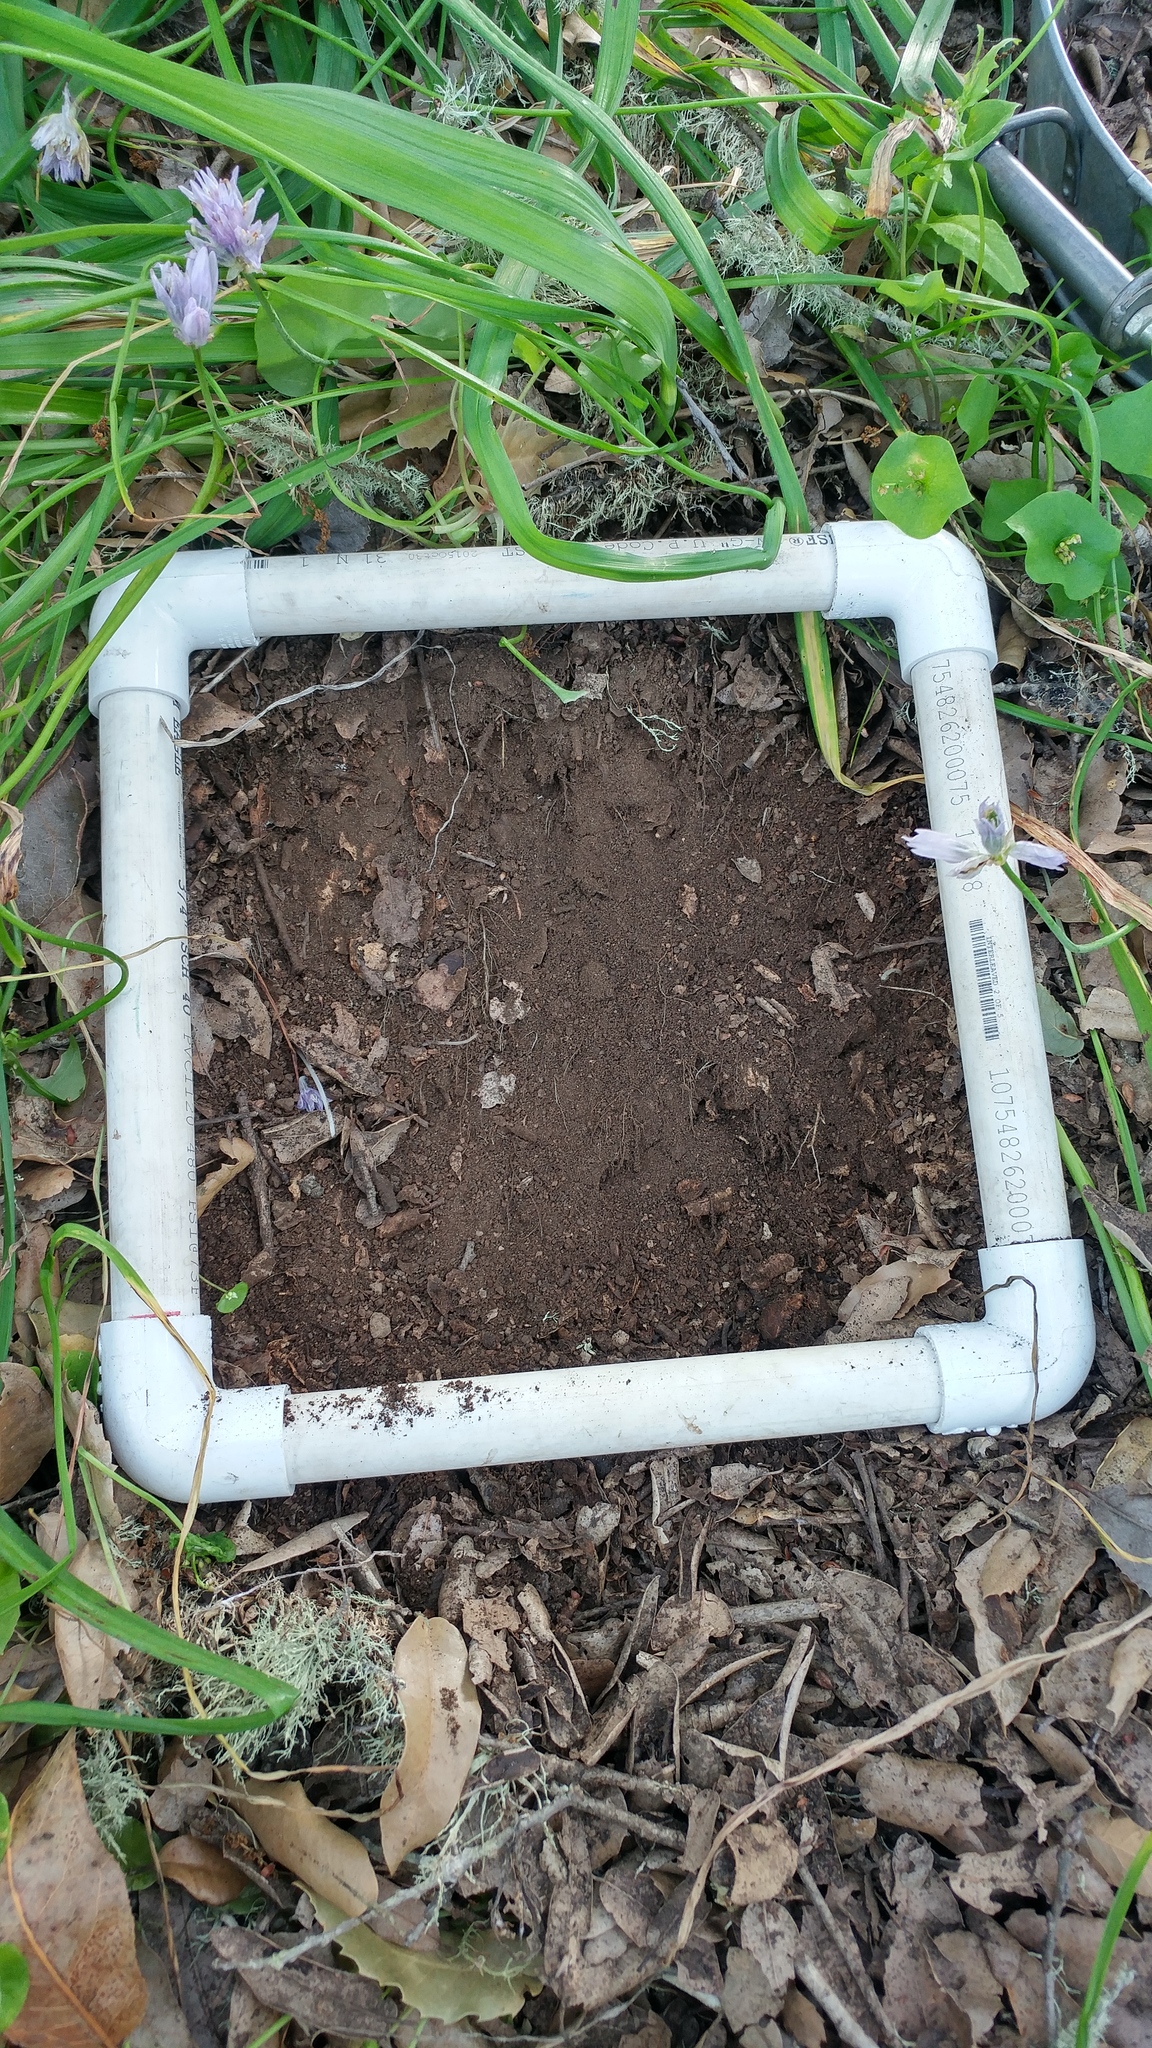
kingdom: Plantae
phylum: Tracheophyta
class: Magnoliopsida
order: Fagales
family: Fagaceae
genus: Quercus
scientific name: Quercus tomentella
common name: Island oak
